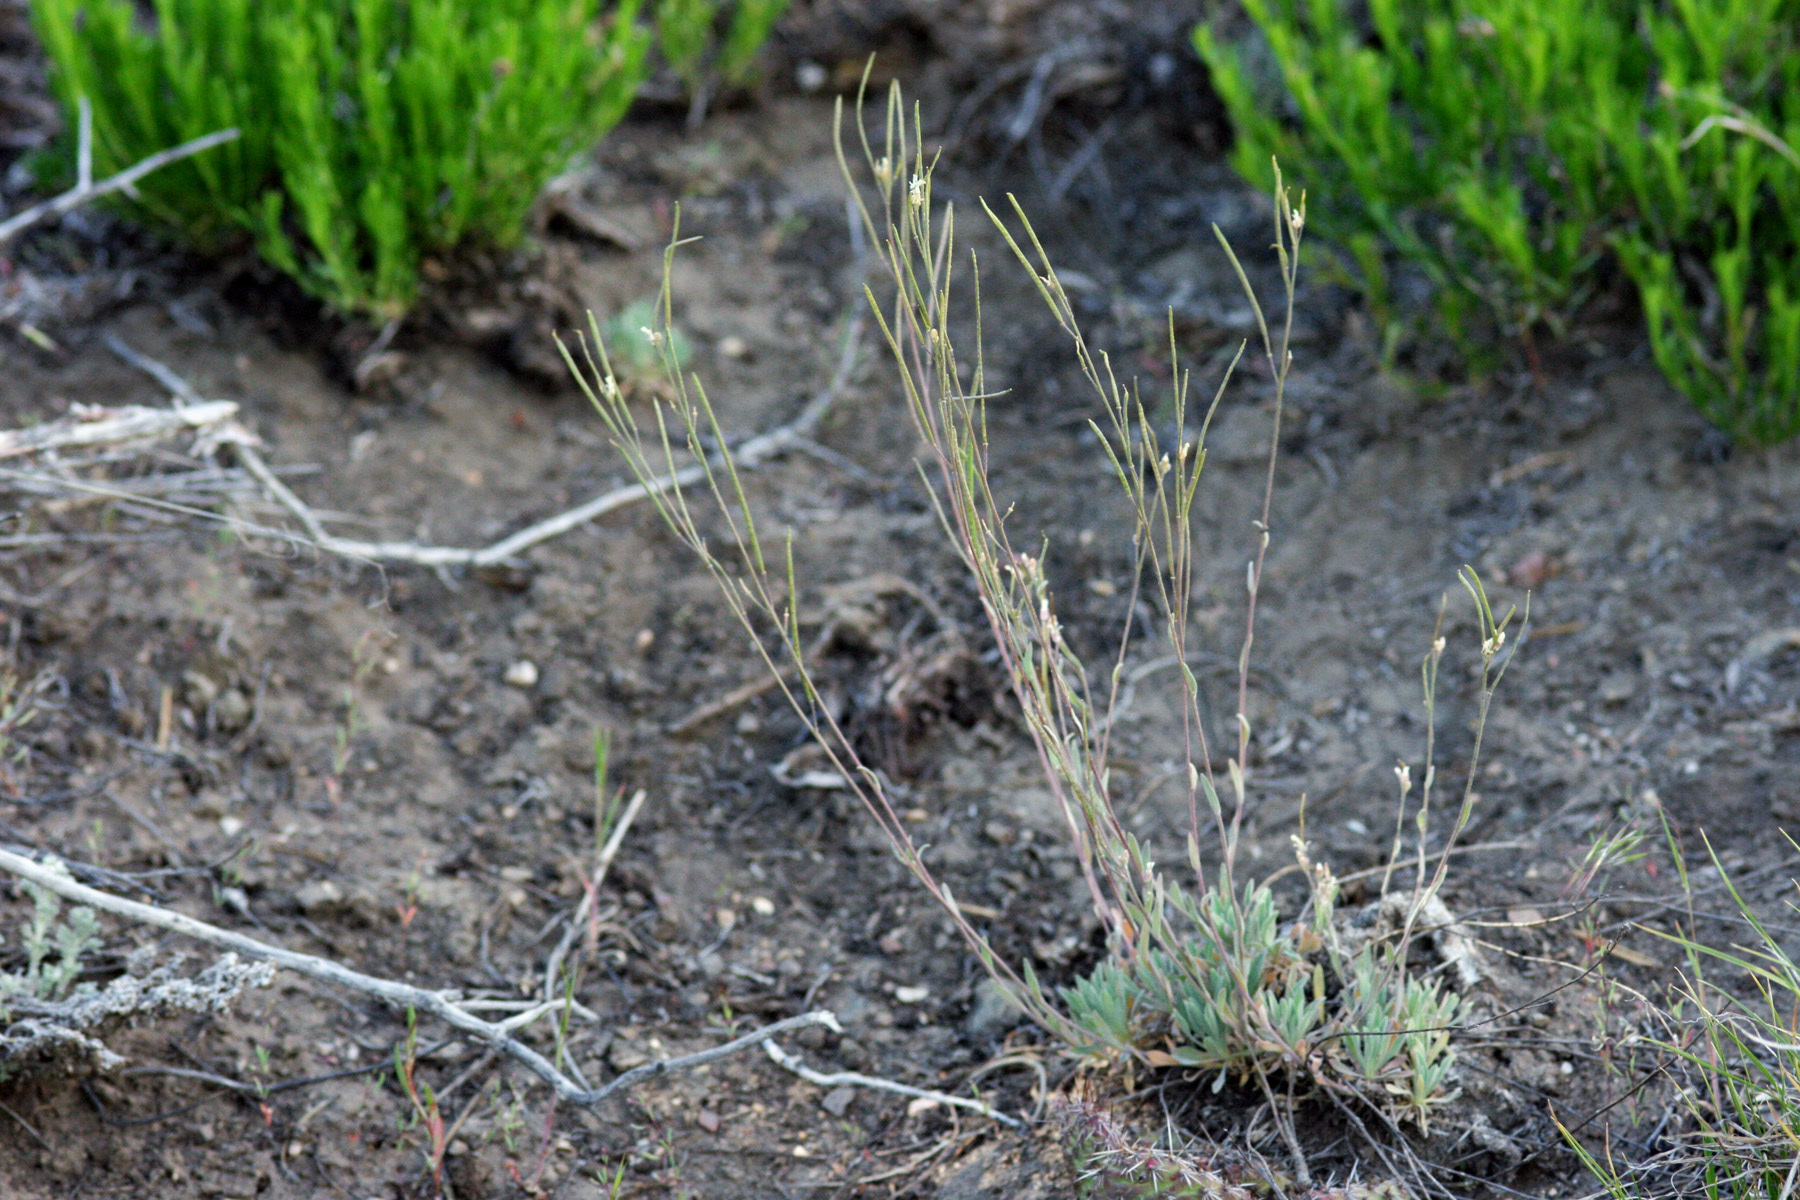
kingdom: Plantae
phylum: Tracheophyta
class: Magnoliopsida
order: Brassicales
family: Brassicaceae
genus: Boechera
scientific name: Boechera crandallii
